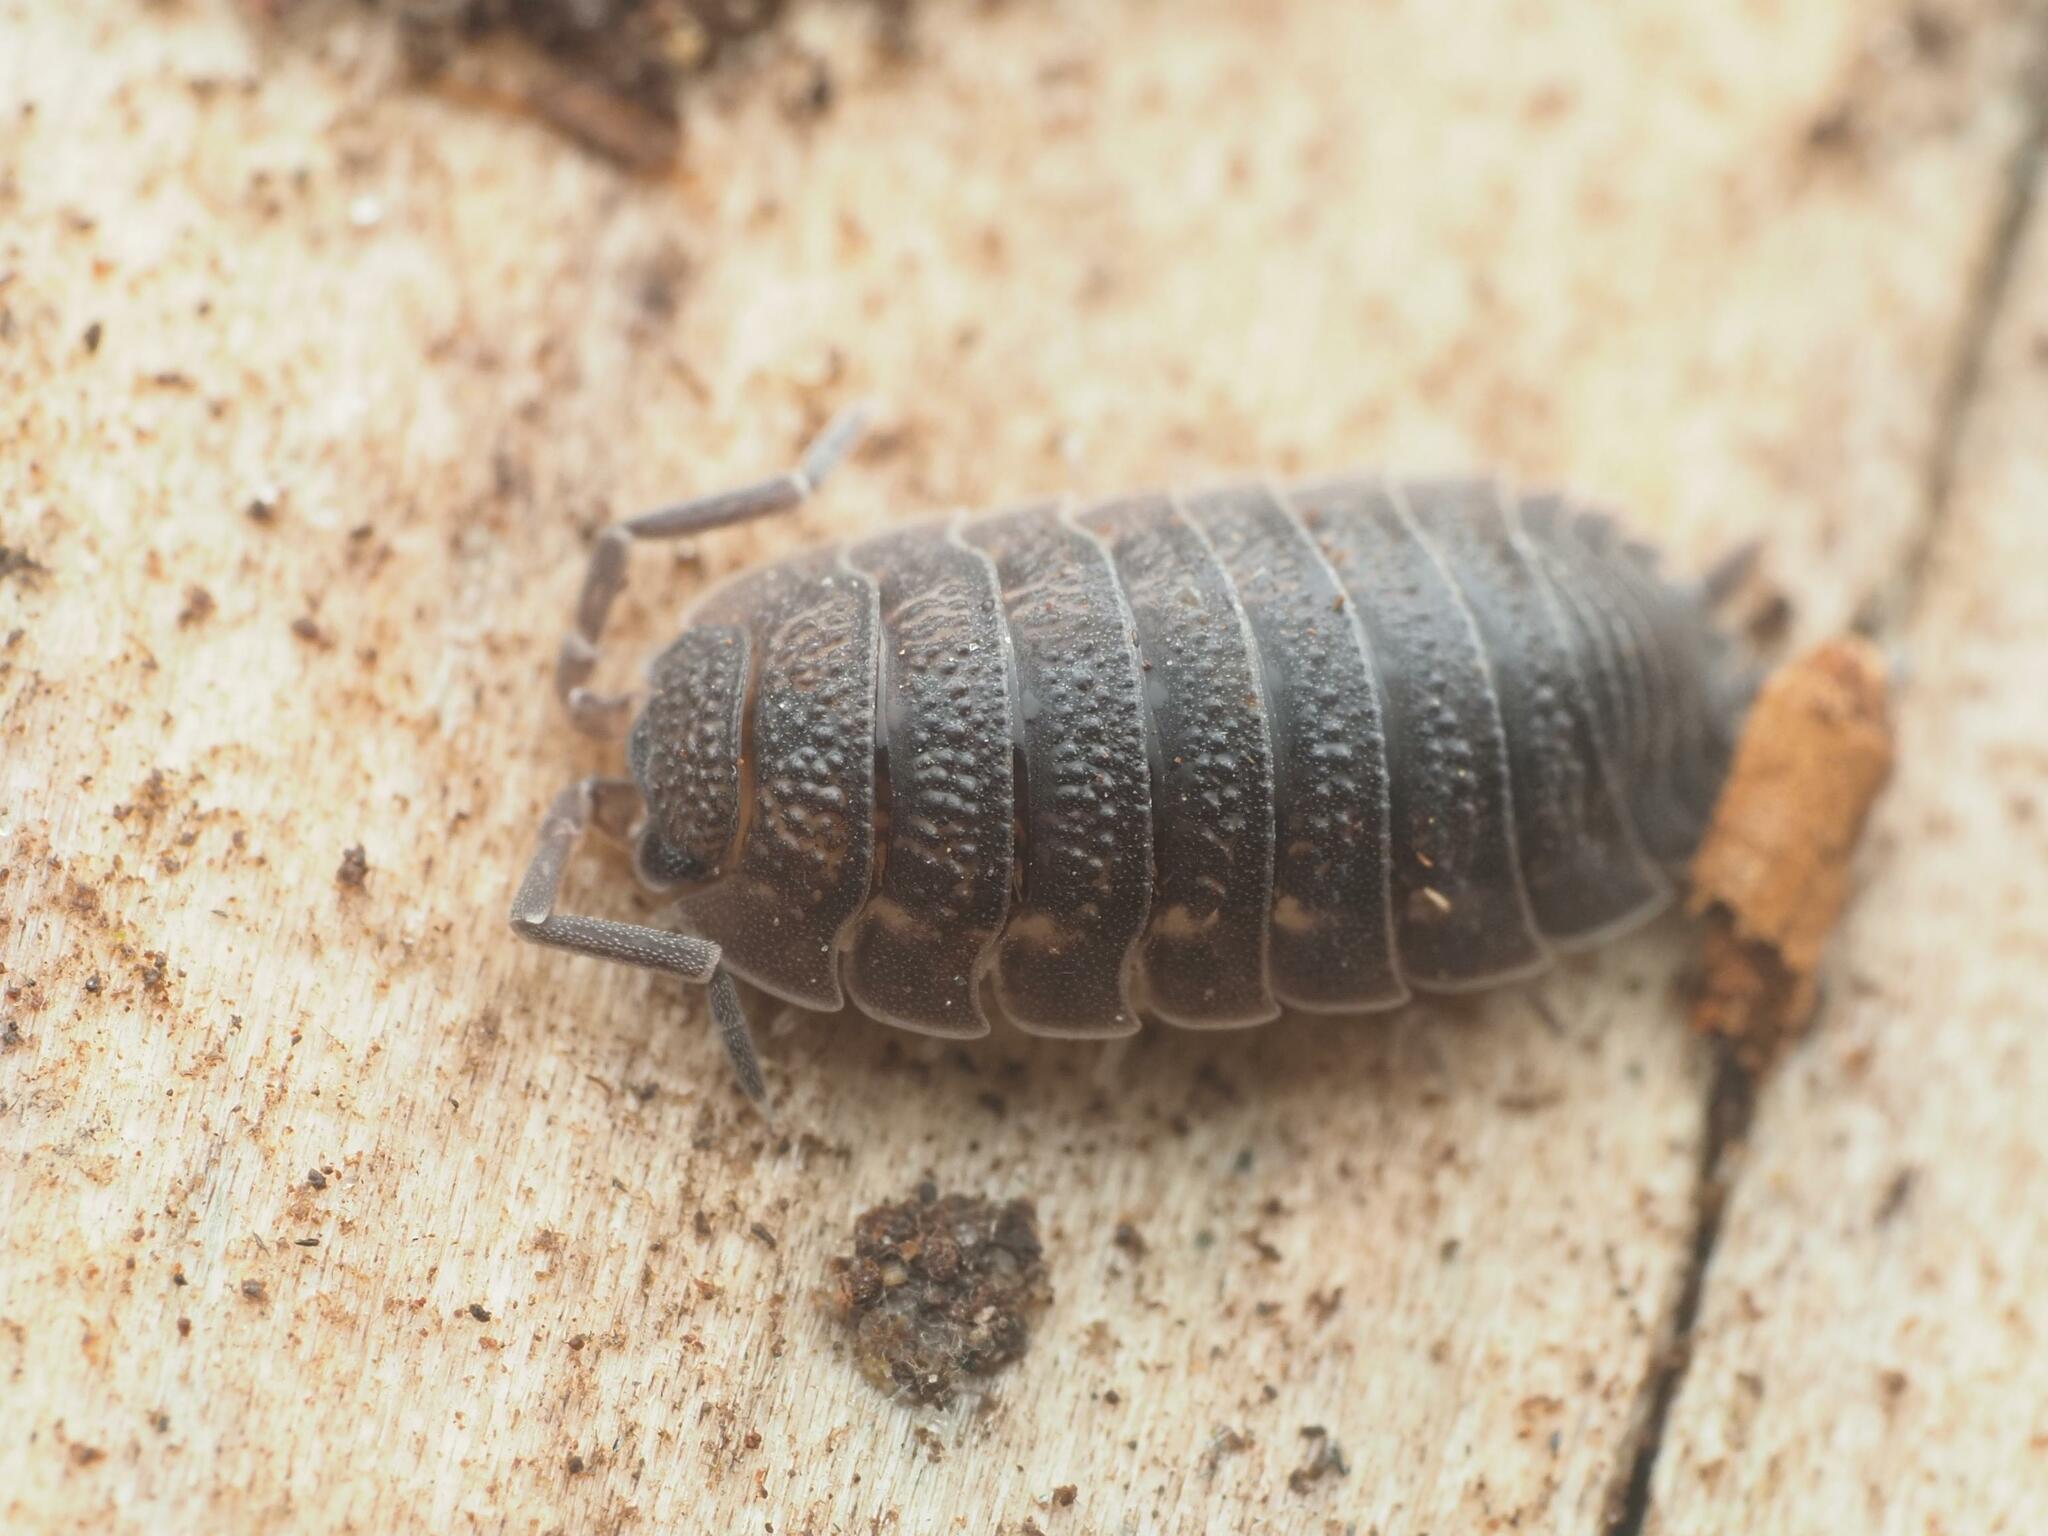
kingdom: Animalia
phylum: Arthropoda
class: Malacostraca
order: Isopoda
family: Porcellionidae
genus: Porcellio
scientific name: Porcellio scaber
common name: Common rough woodlouse
